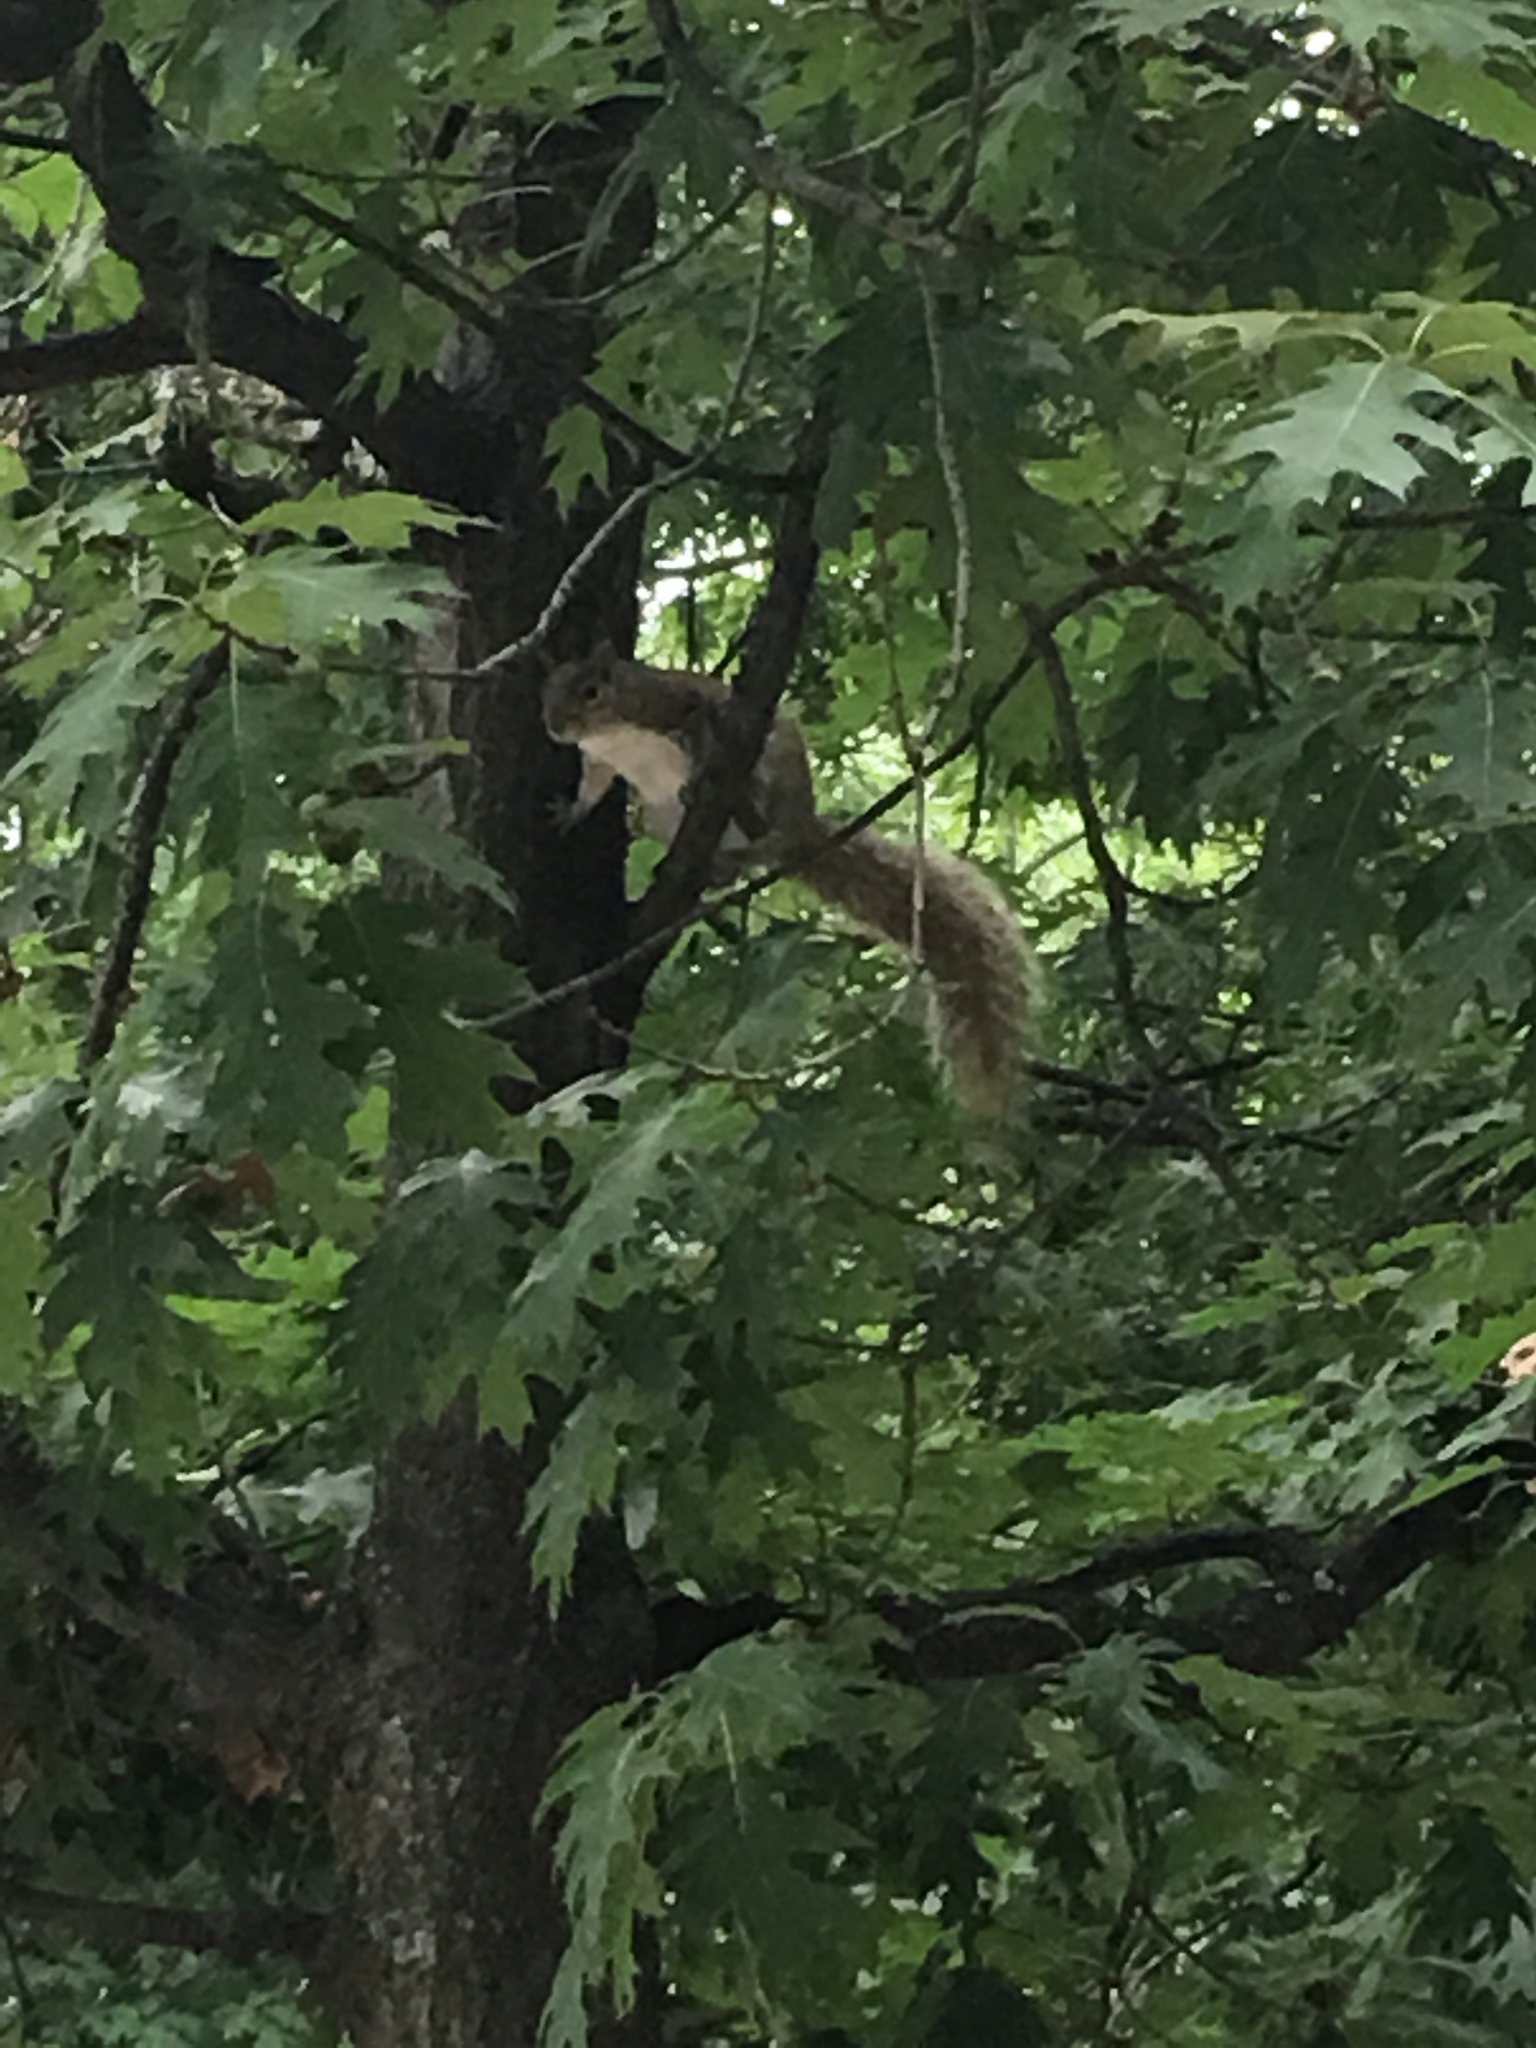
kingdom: Animalia
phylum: Chordata
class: Mammalia
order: Rodentia
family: Sciuridae
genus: Sciurus
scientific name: Sciurus carolinensis
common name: Eastern gray squirrel
